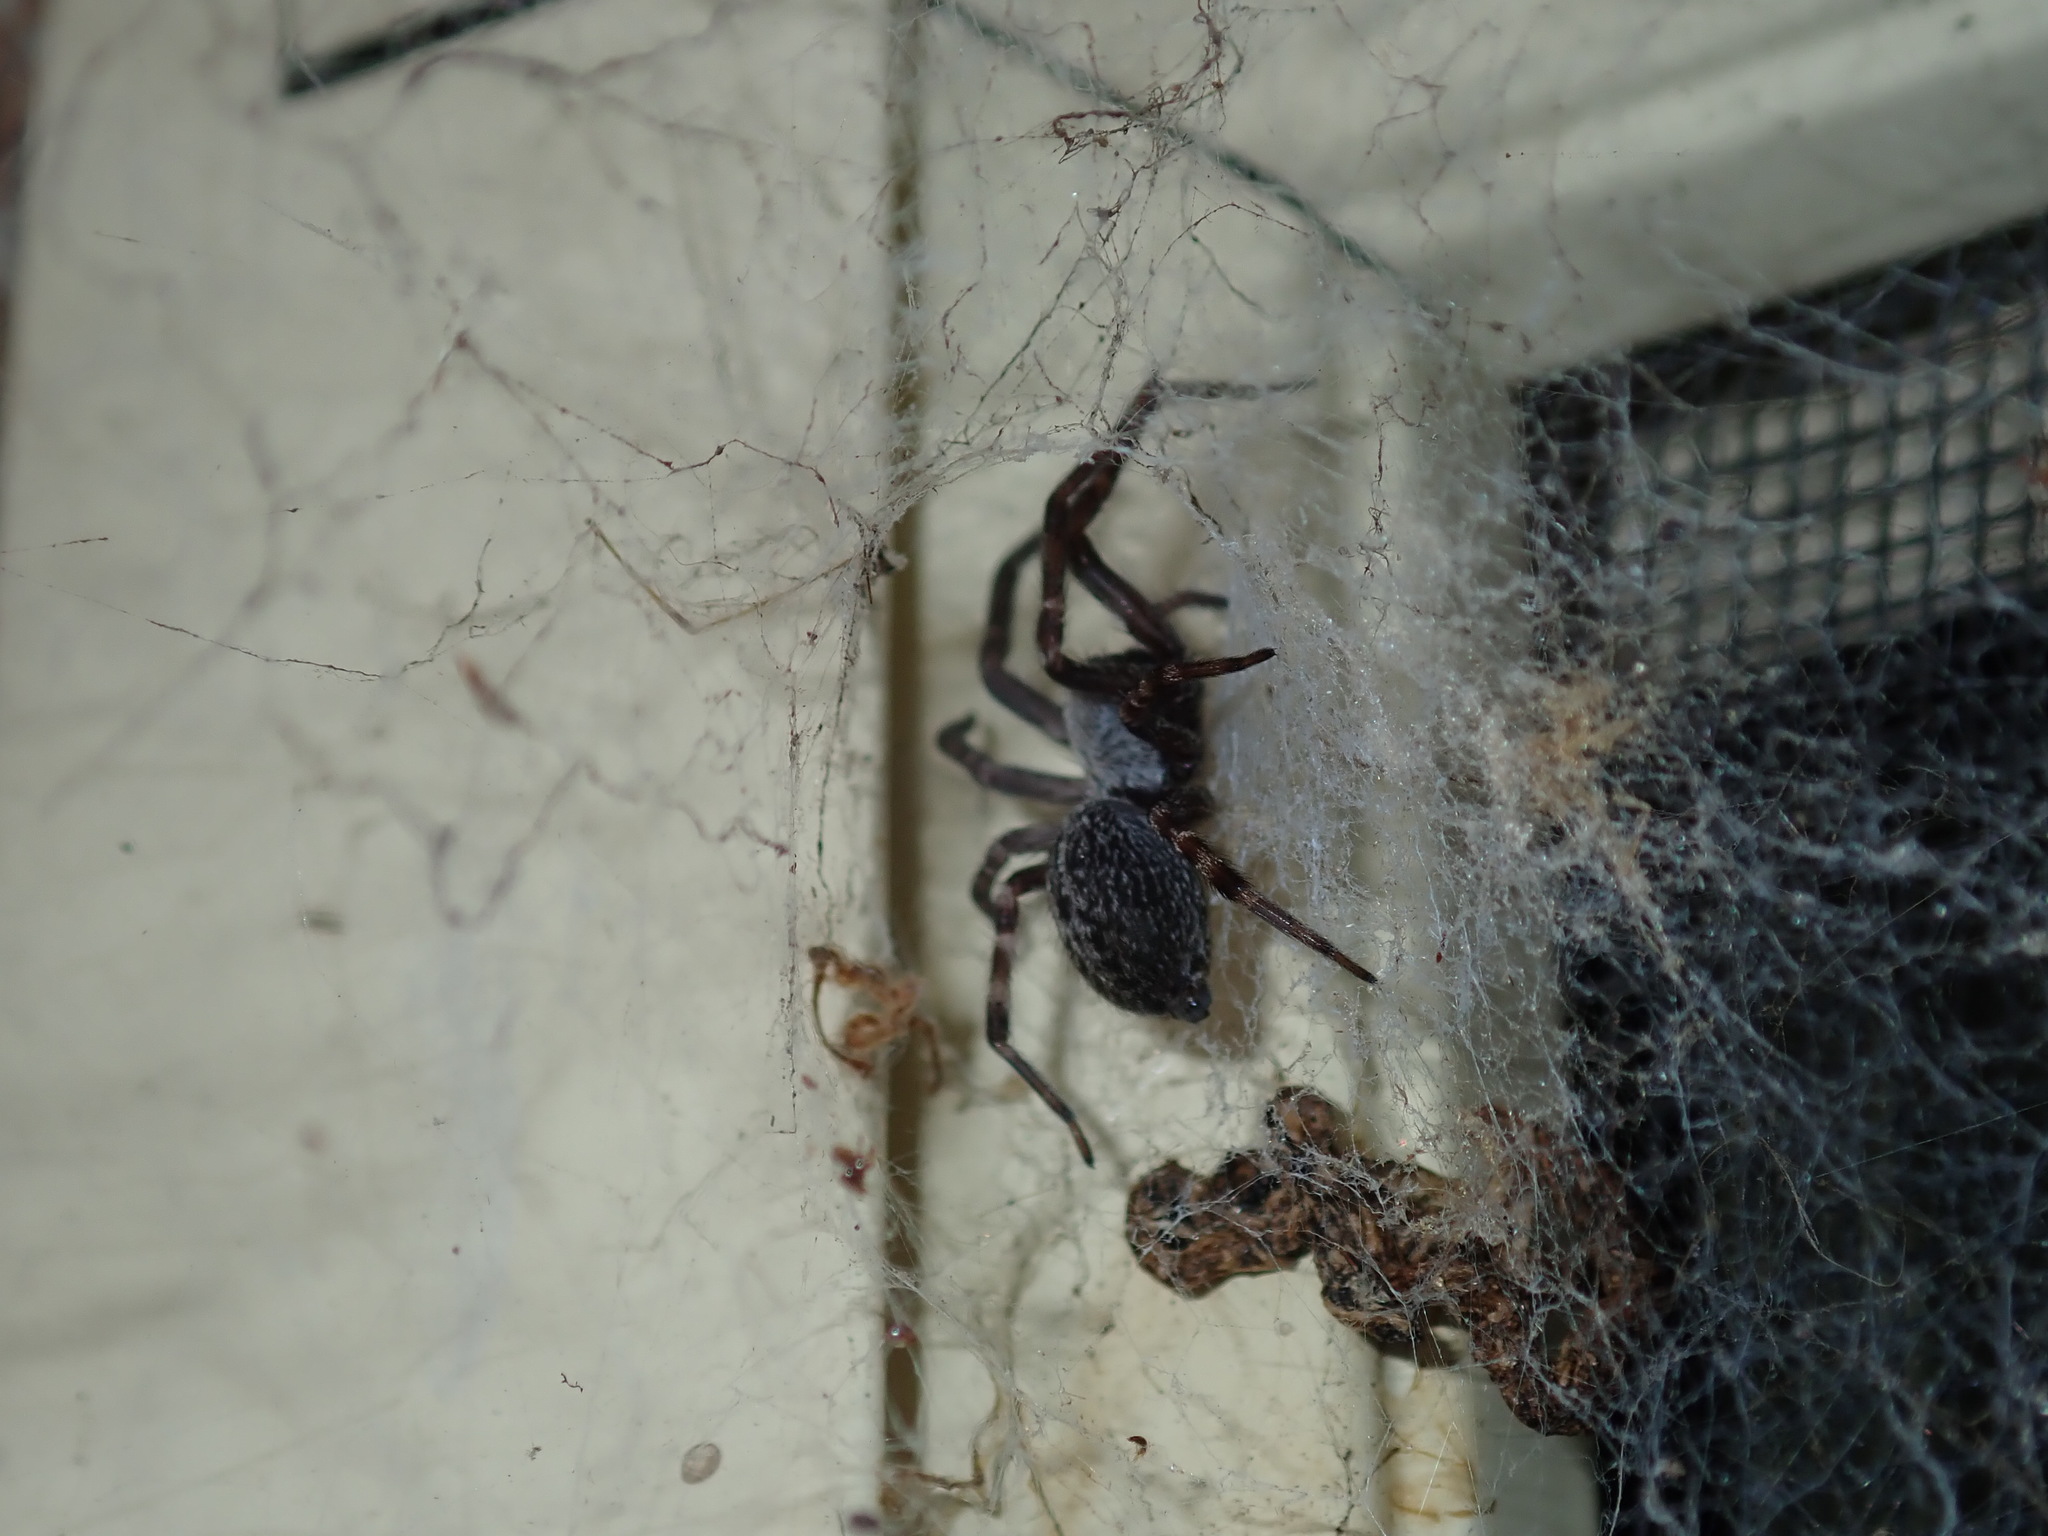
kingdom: Animalia
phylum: Arthropoda
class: Arachnida
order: Araneae
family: Desidae
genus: Badumna
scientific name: Badumna longinqua
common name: Gray house spider
